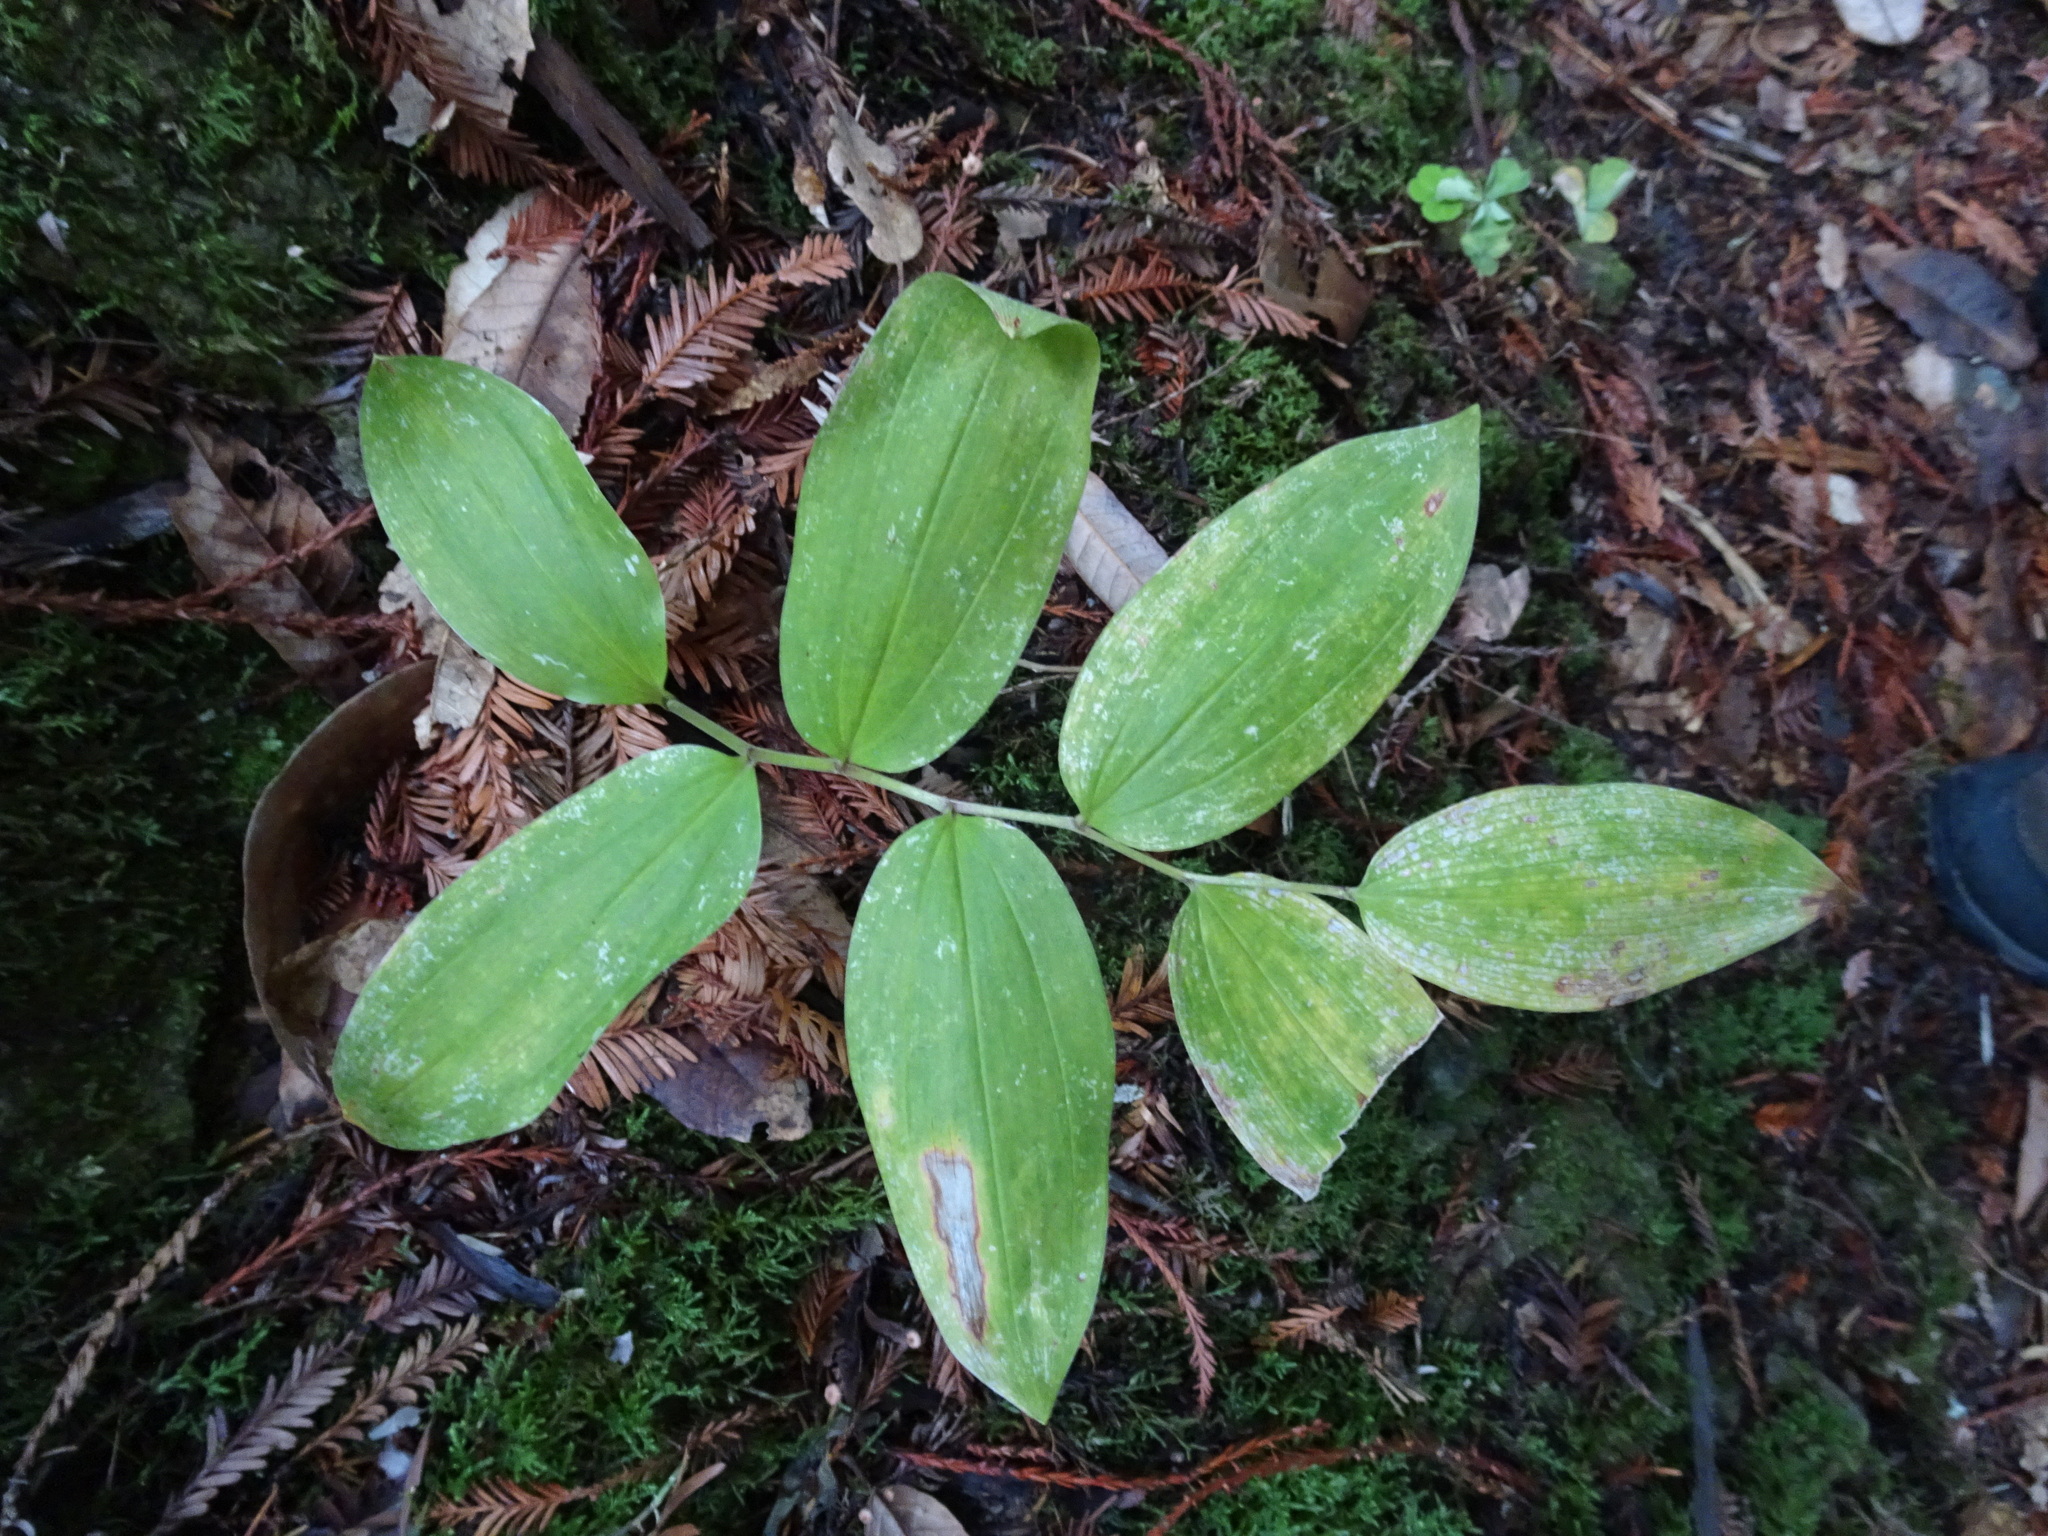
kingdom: Plantae
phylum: Tracheophyta
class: Liliopsida
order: Asparagales
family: Asparagaceae
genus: Maianthemum
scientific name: Maianthemum racemosum
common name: False spikenard
